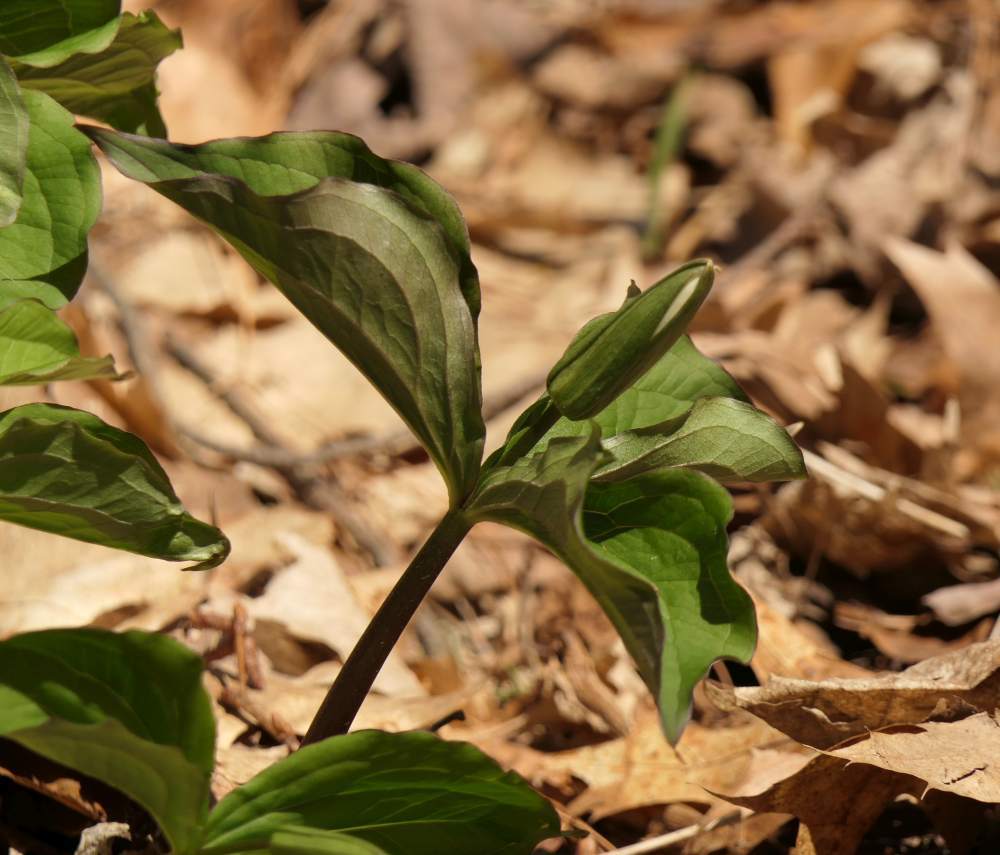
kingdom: Plantae
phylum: Tracheophyta
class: Liliopsida
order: Liliales
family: Melanthiaceae
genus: Trillium
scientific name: Trillium grandiflorum
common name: Great white trillium
